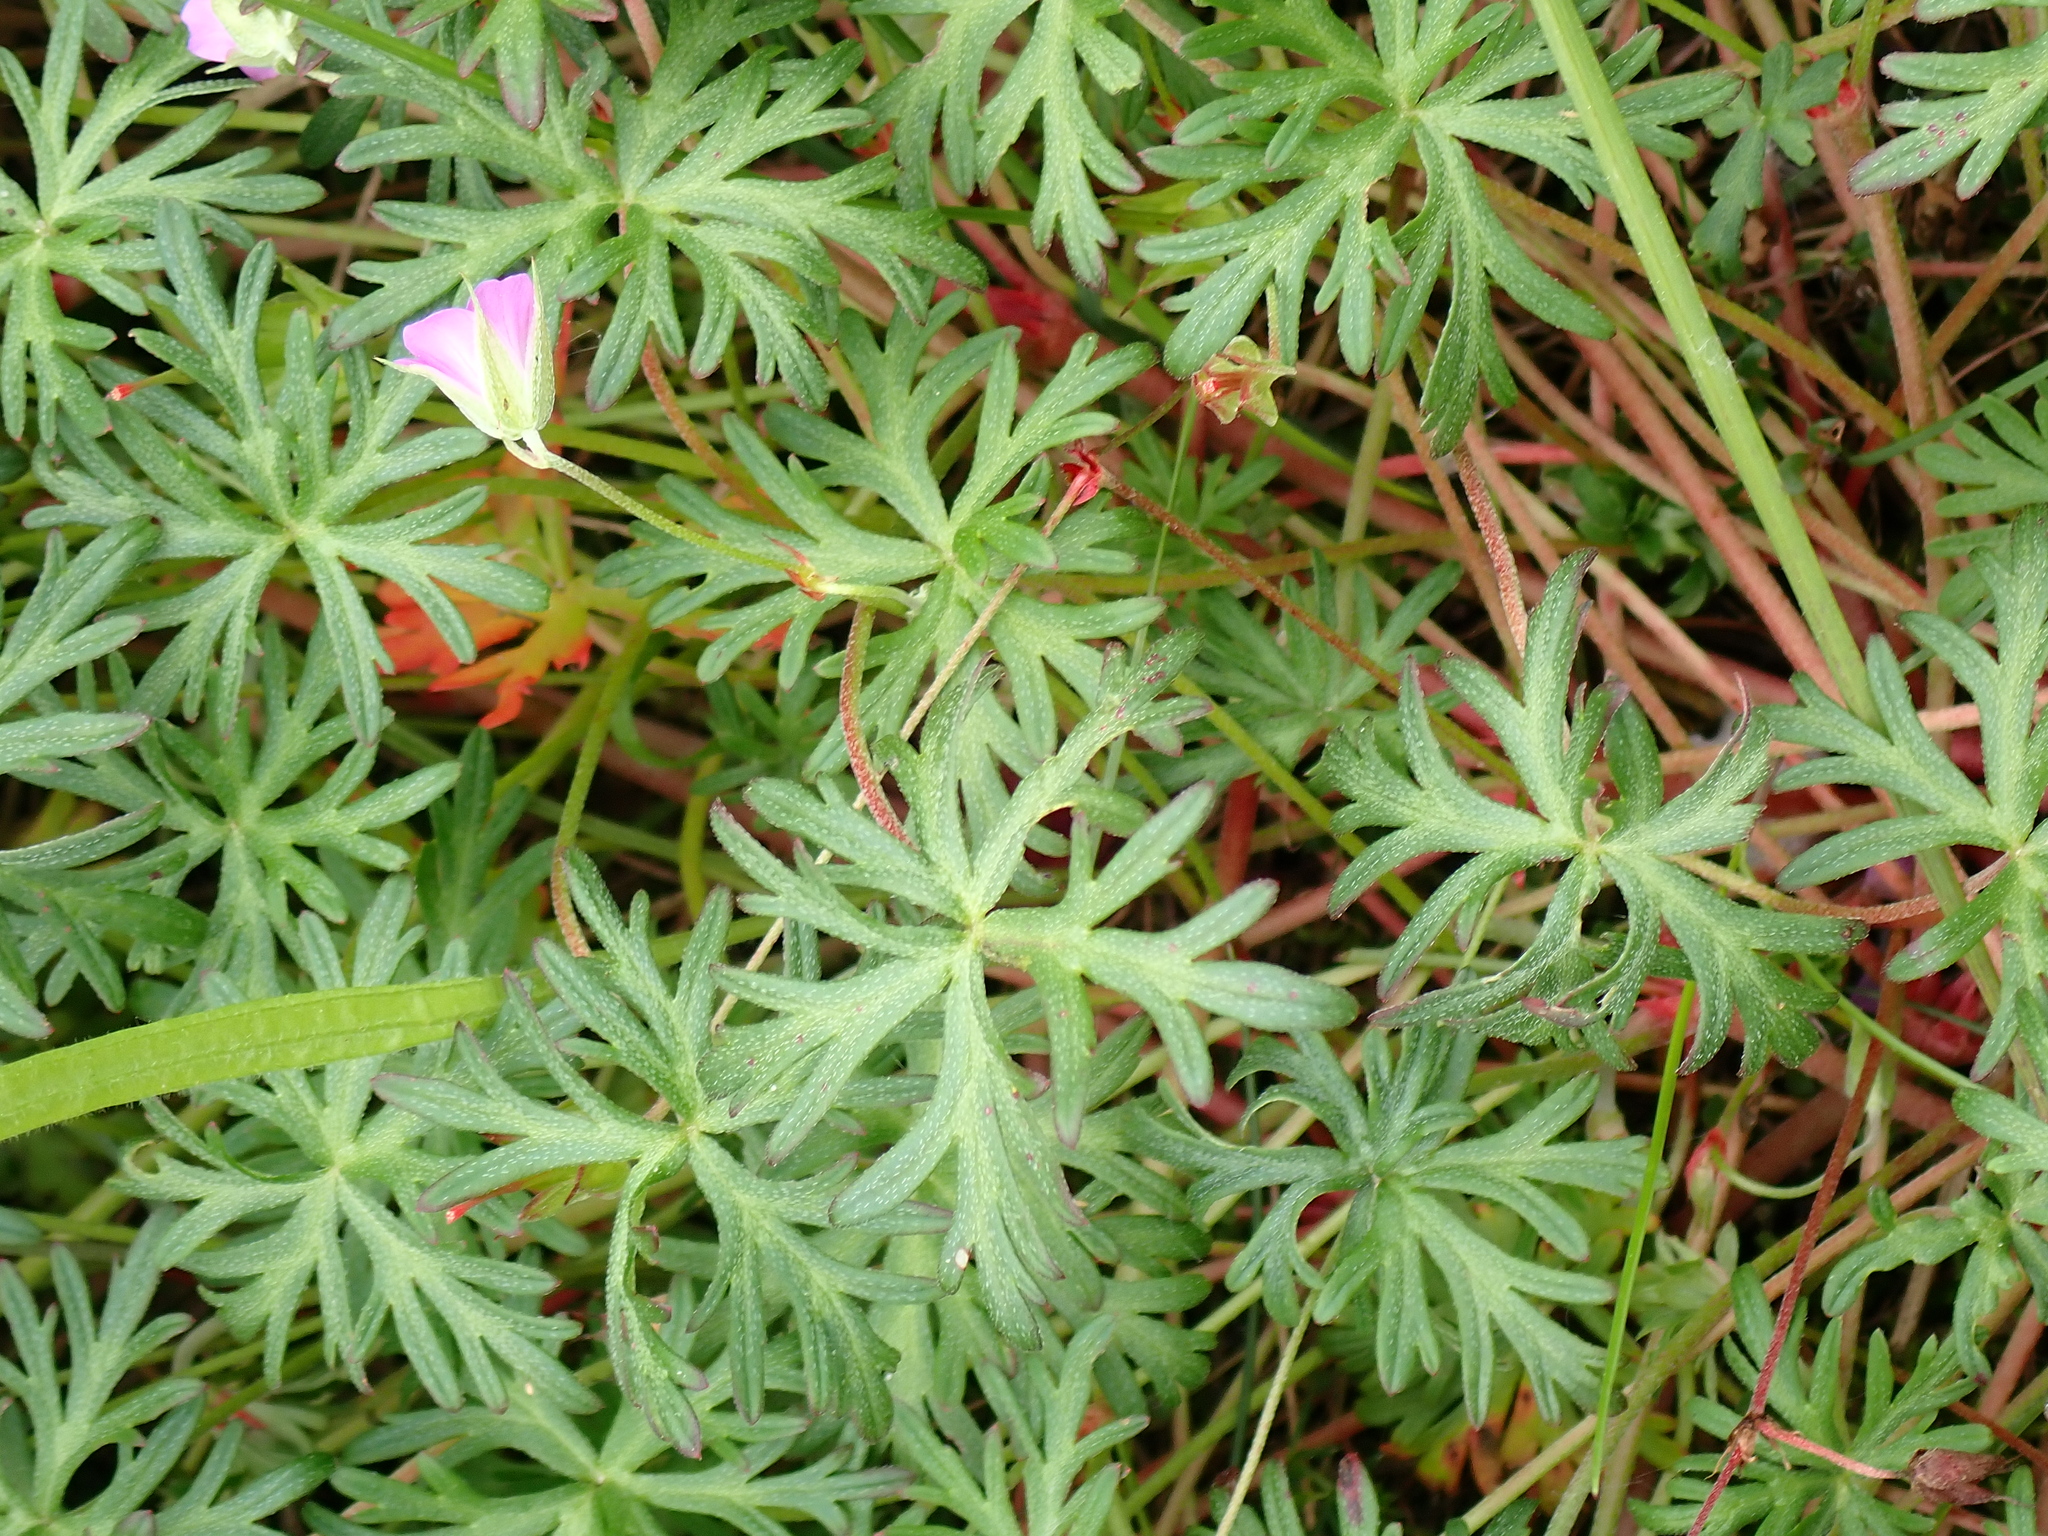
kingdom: Plantae
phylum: Tracheophyta
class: Magnoliopsida
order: Geraniales
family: Geraniaceae
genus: Geranium
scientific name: Geranium columbinum
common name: Long-stalked crane's-bill
